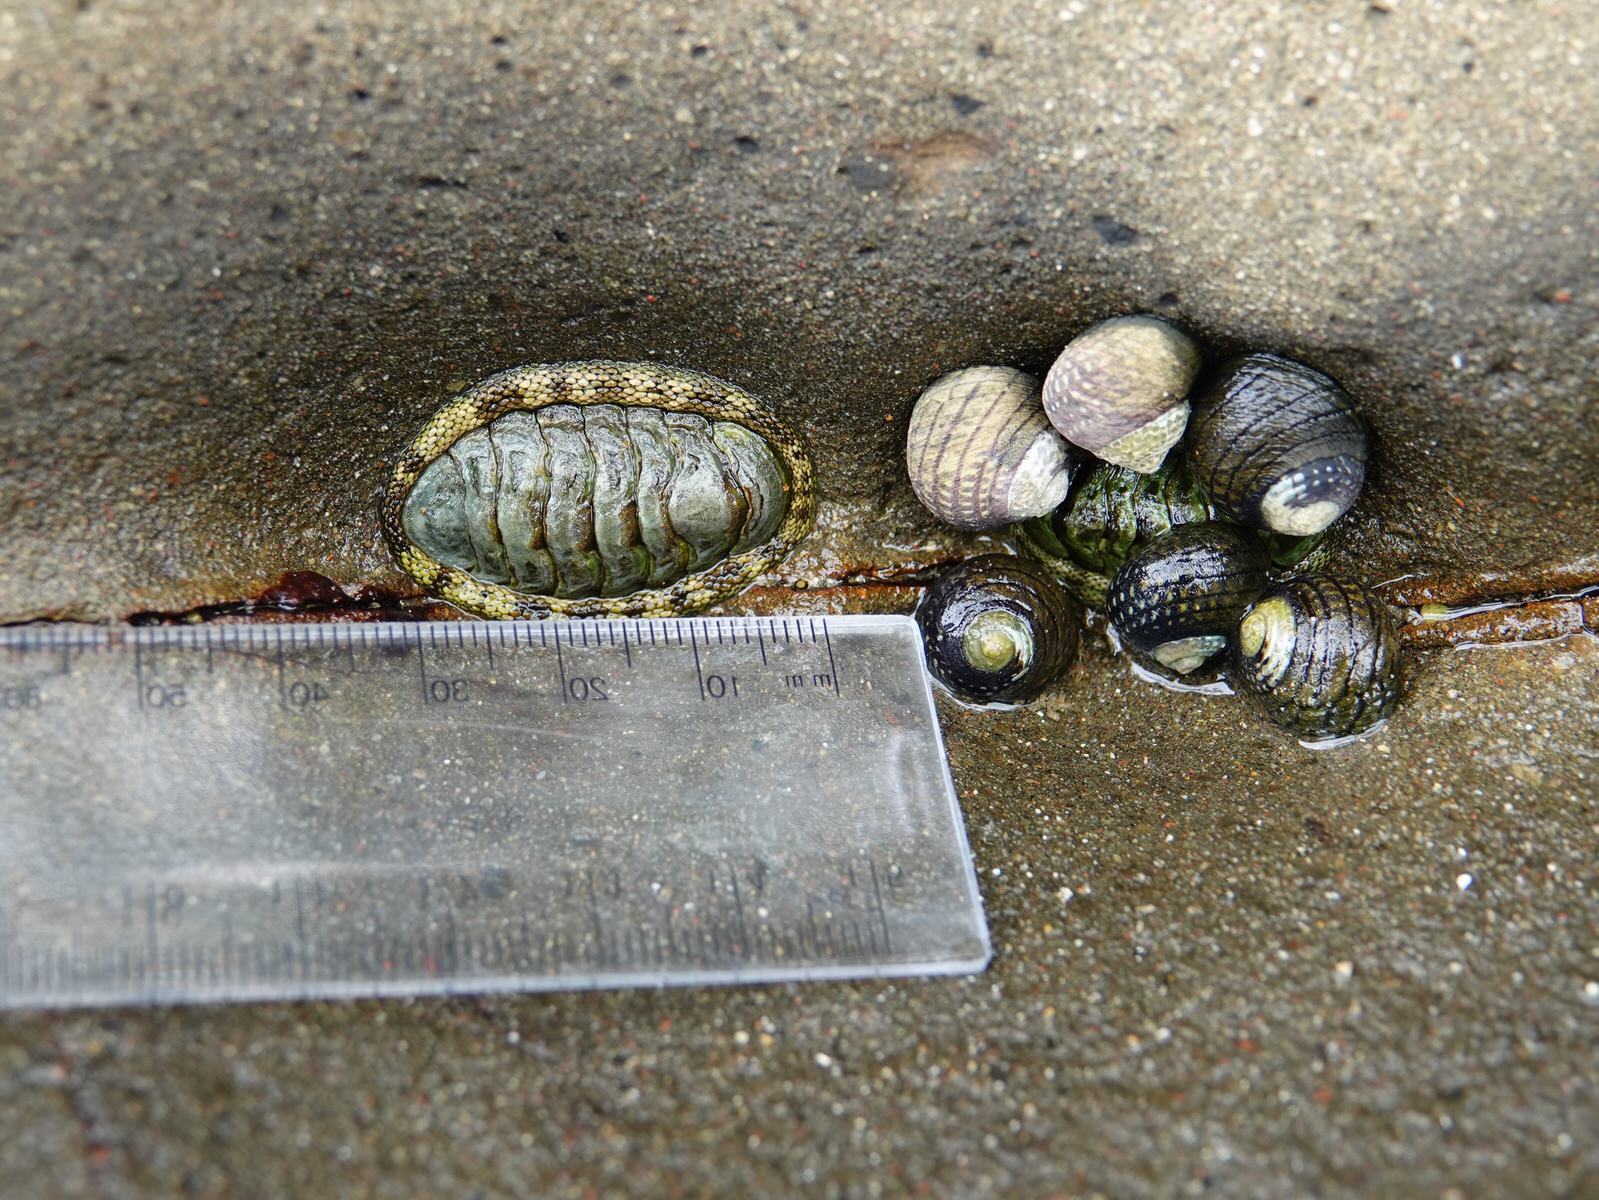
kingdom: Animalia
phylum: Mollusca
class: Polyplacophora
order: Chitonida
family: Chitonidae
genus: Sypharochiton
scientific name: Sypharochiton pelliserpentis
